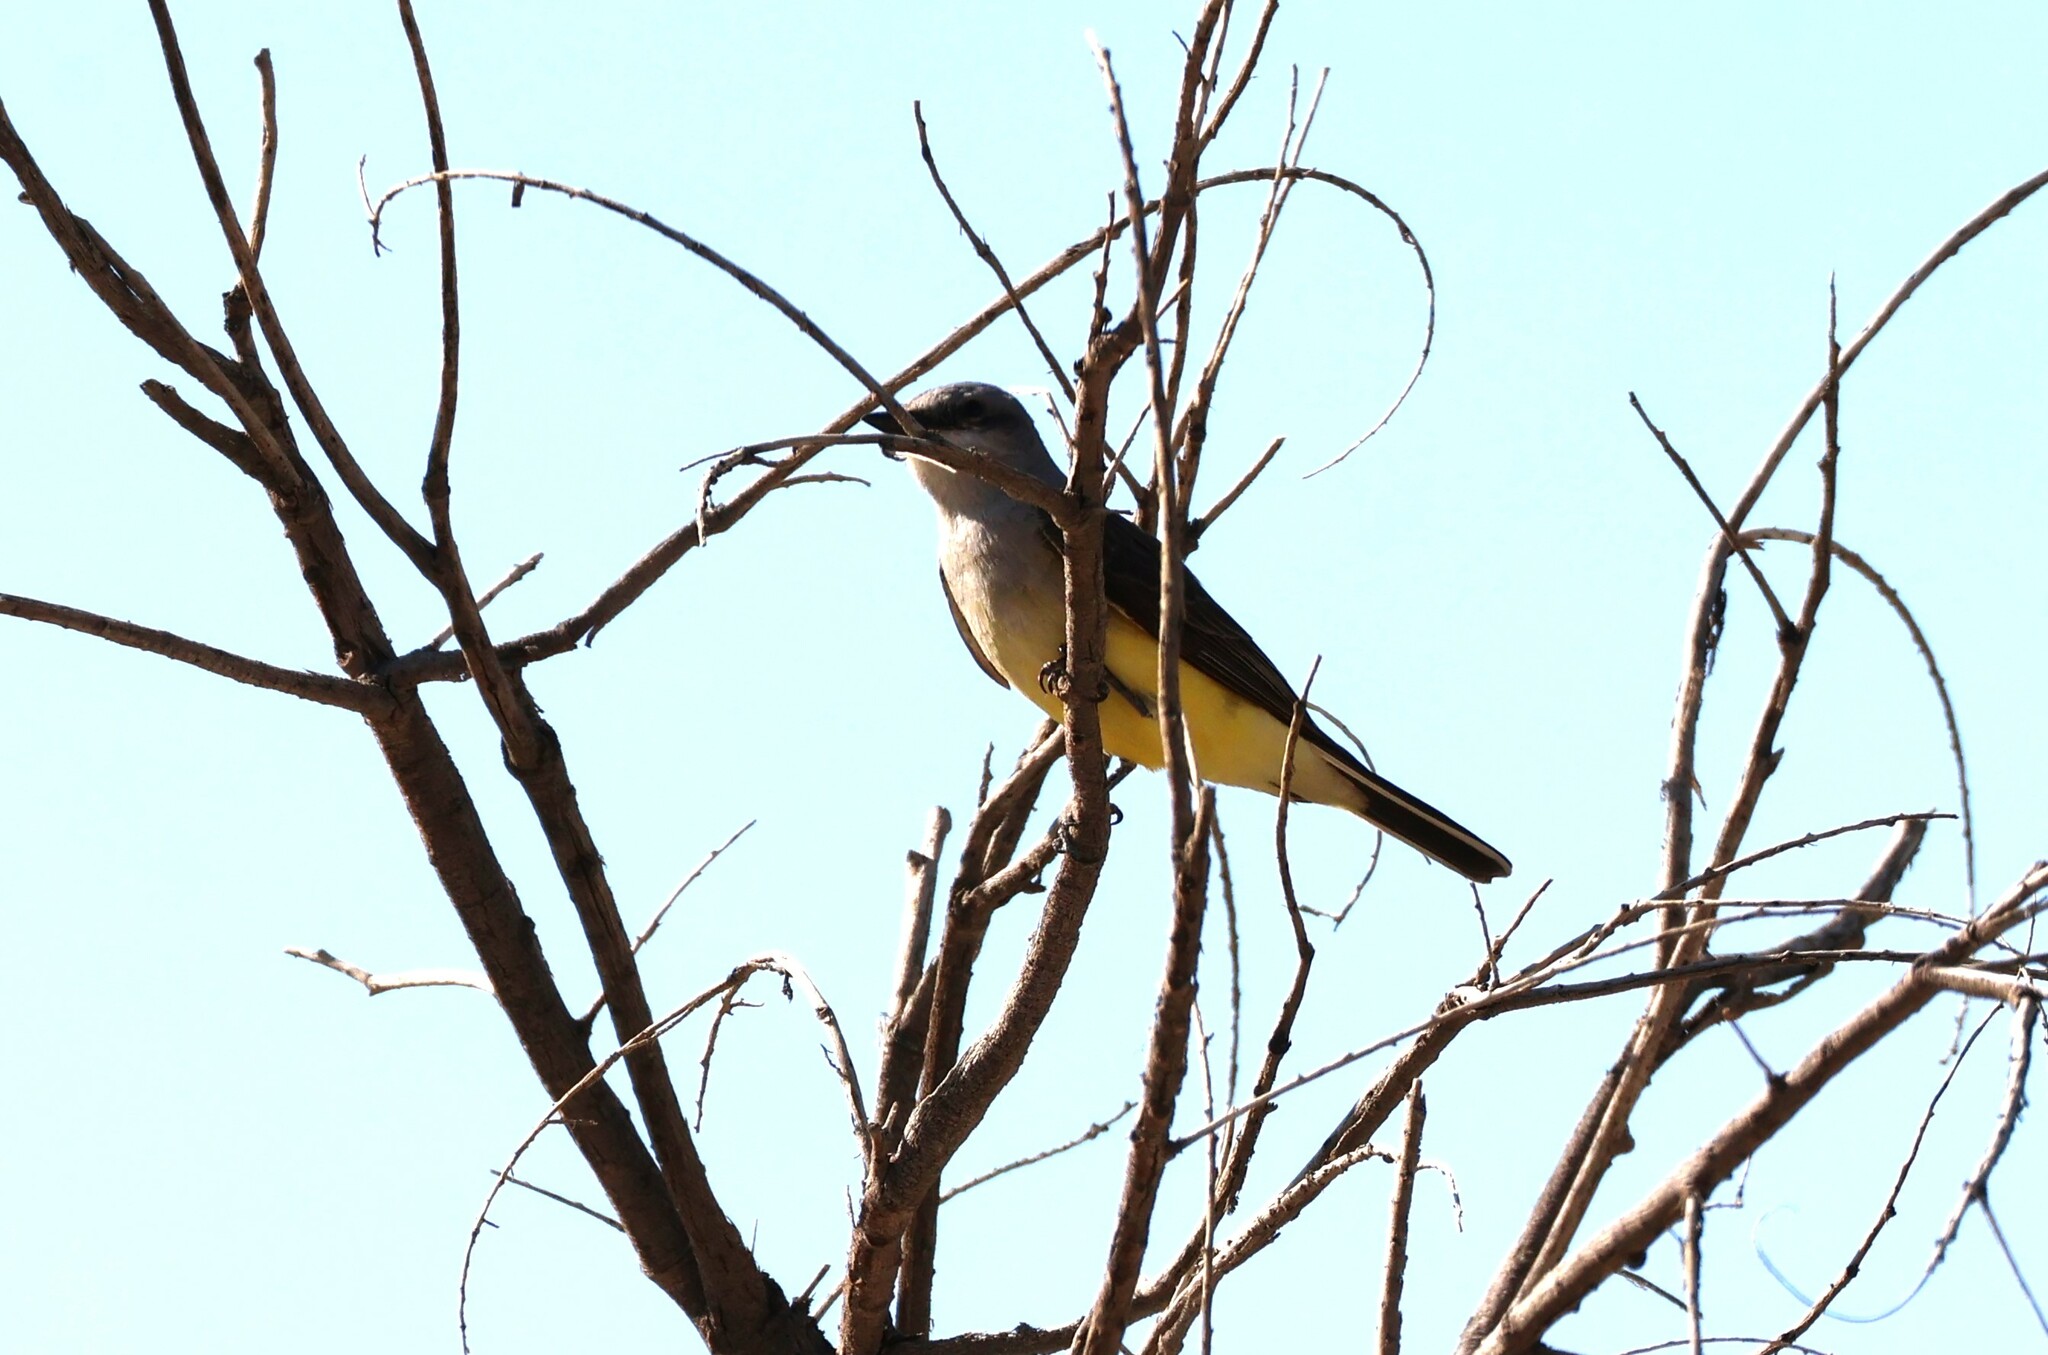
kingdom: Animalia
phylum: Chordata
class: Aves
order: Passeriformes
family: Tyrannidae
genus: Tyrannus
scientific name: Tyrannus verticalis
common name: Western kingbird
